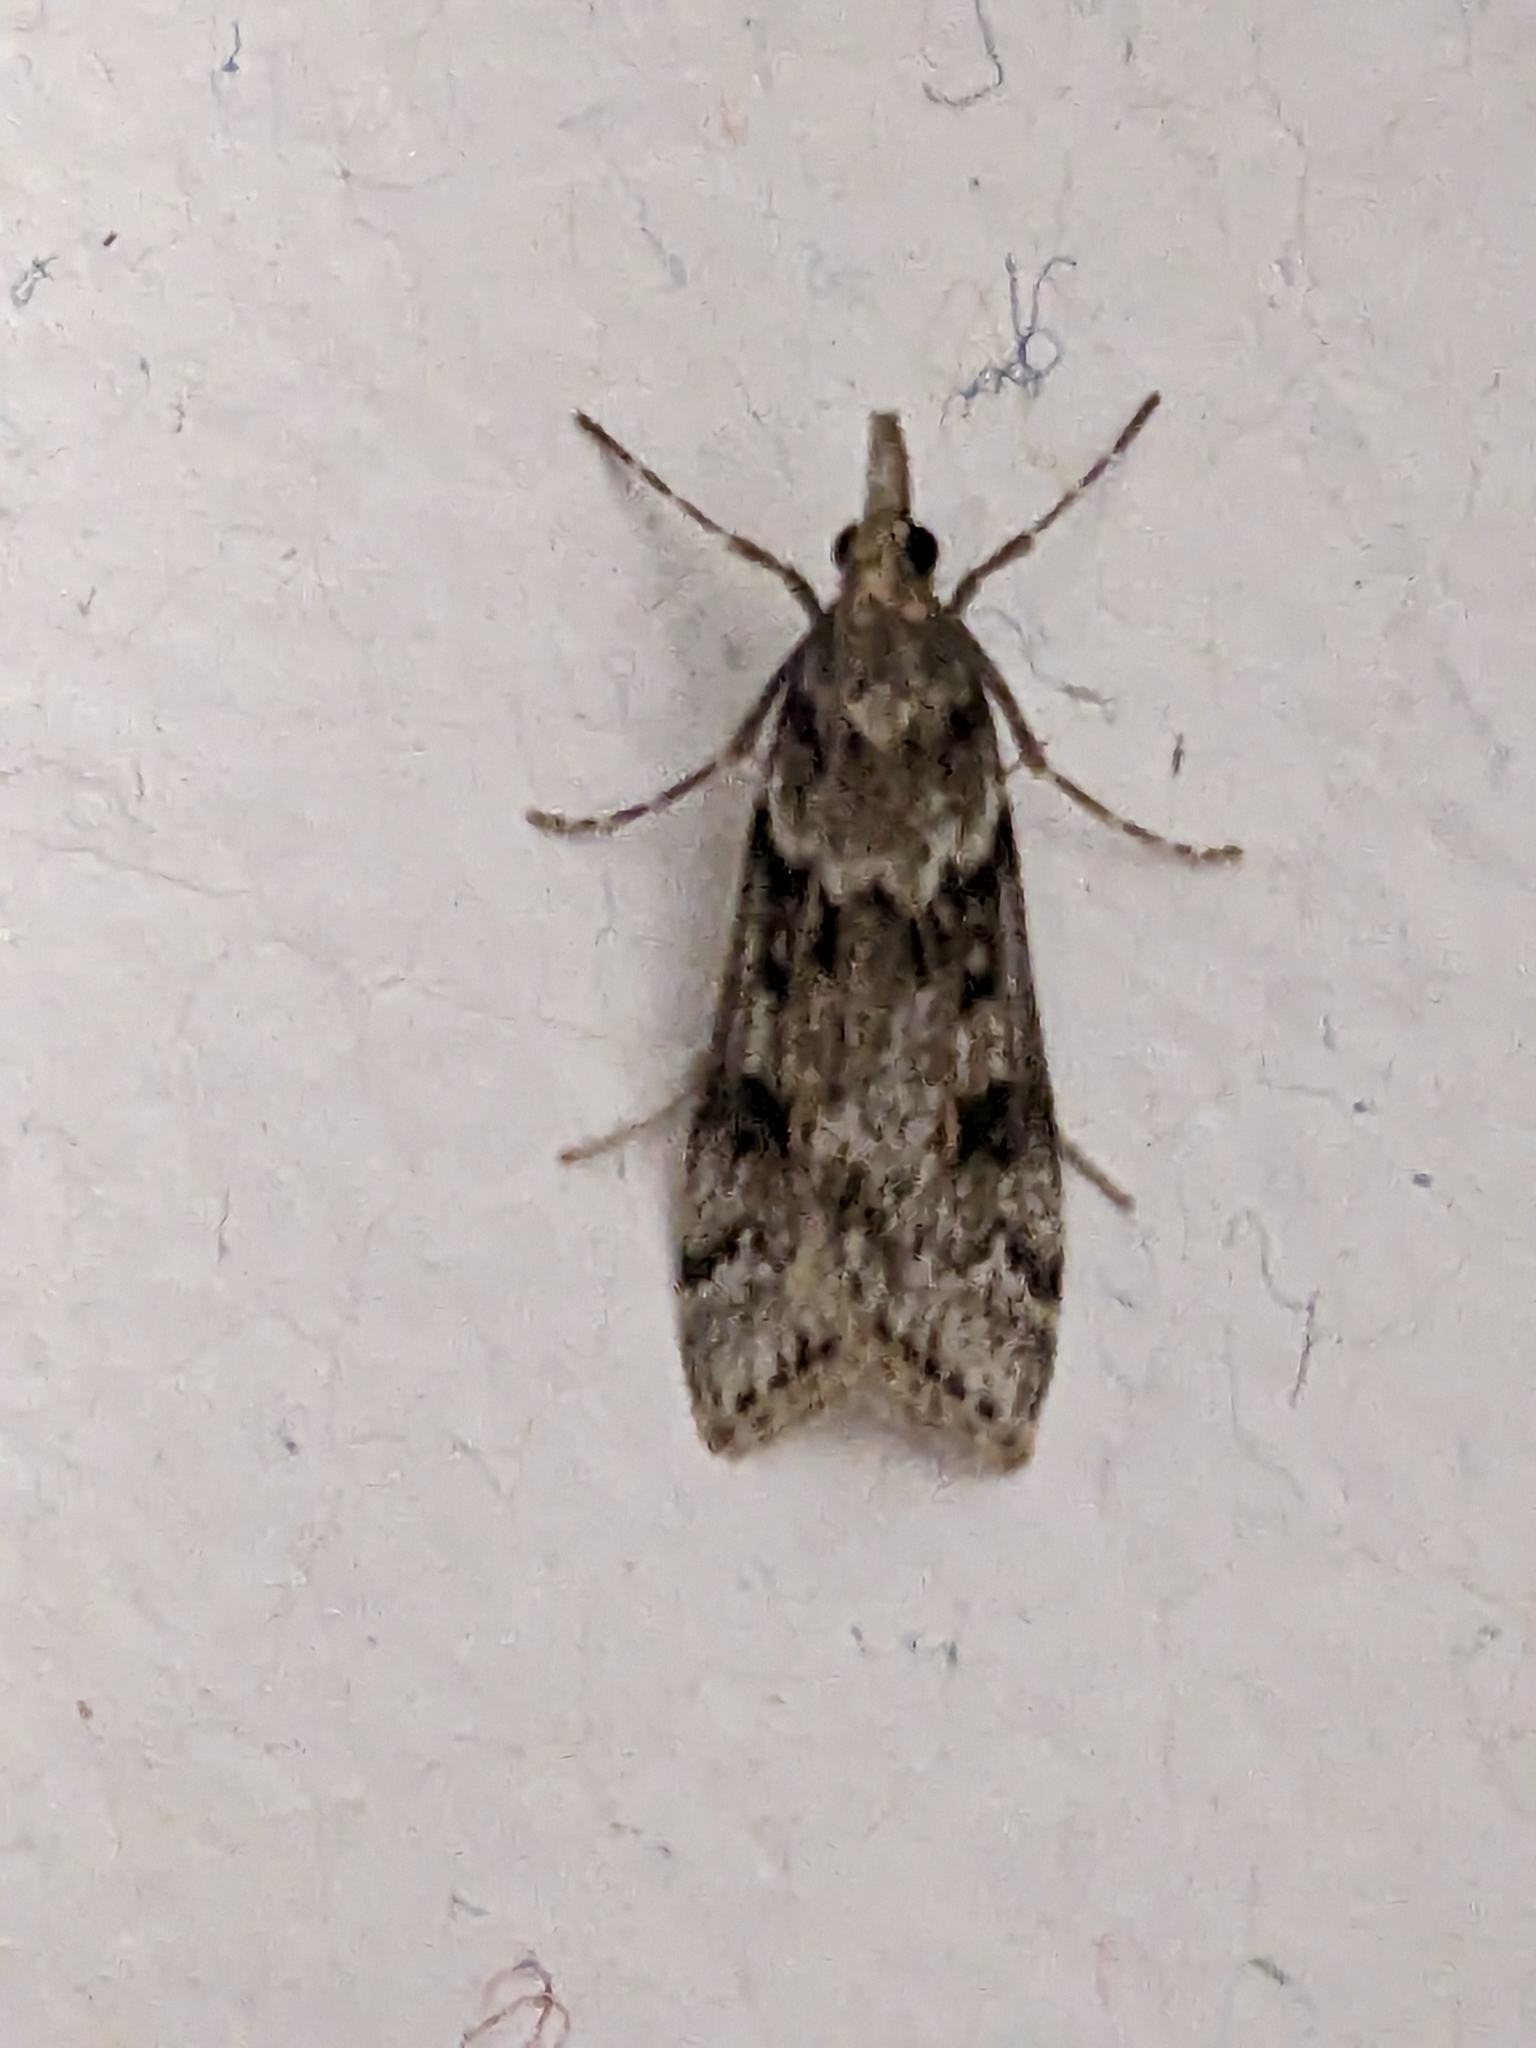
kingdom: Animalia
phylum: Arthropoda
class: Insecta
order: Lepidoptera
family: Crambidae
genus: Eudonia
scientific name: Eudonia angustea
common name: Narrow-winged grey
